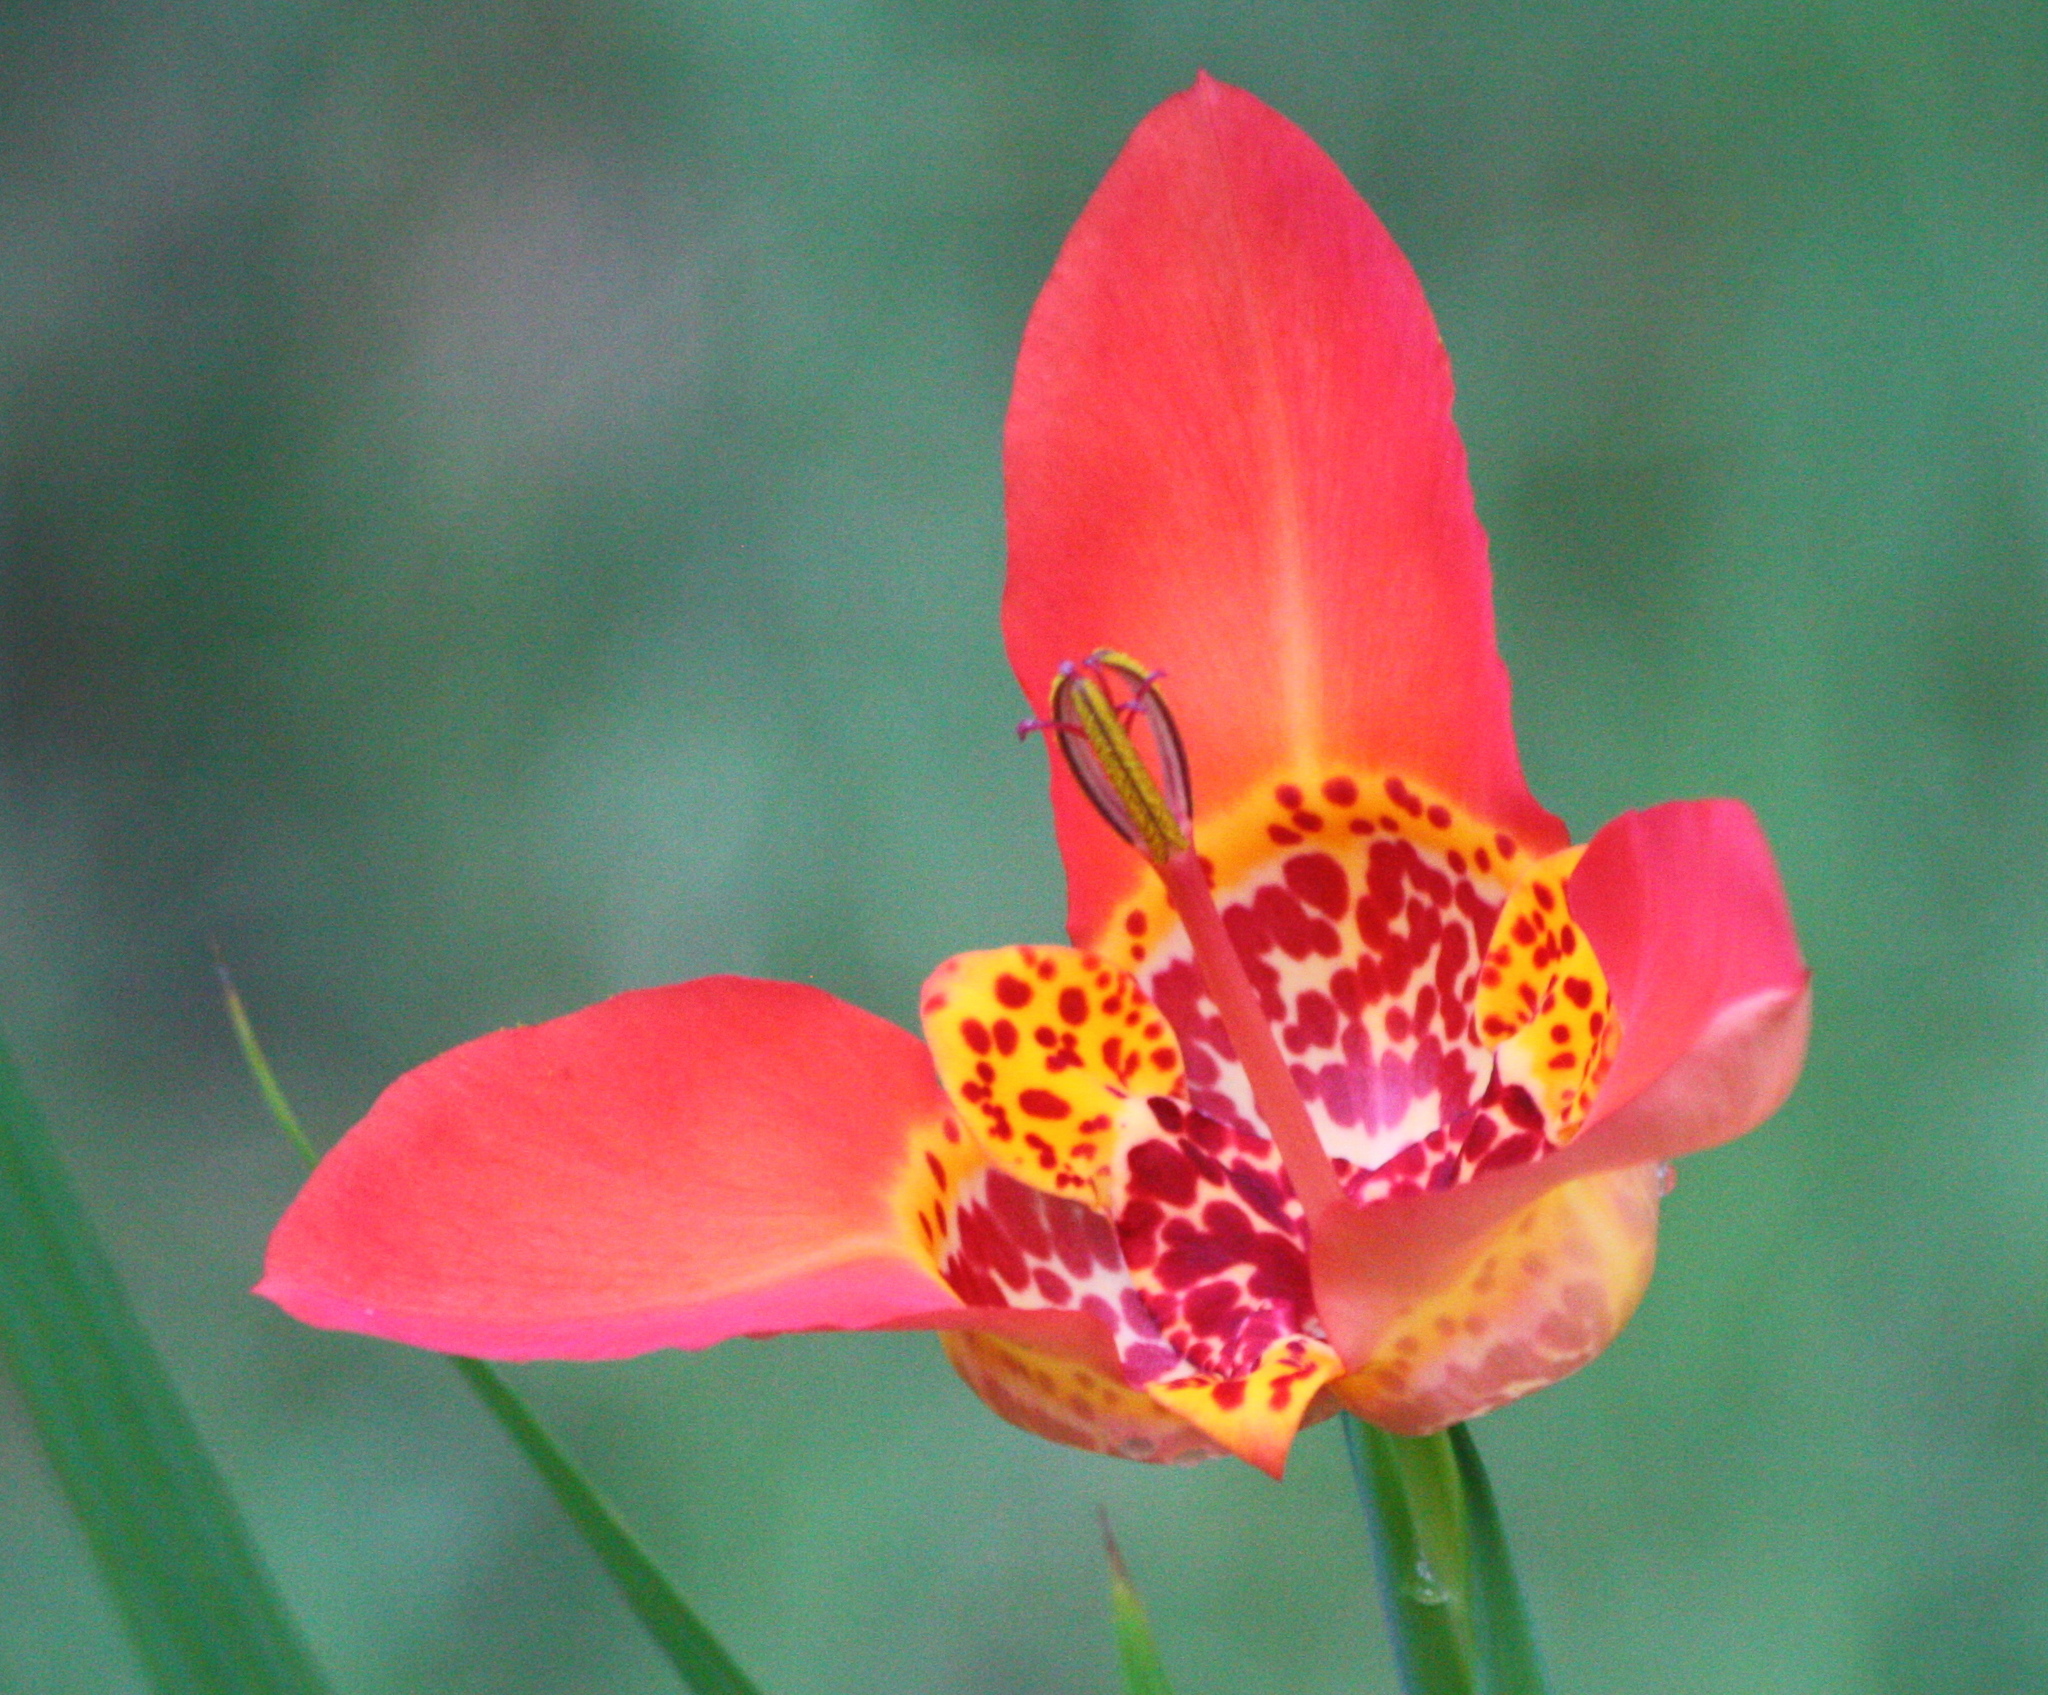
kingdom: Plantae
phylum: Tracheophyta
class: Liliopsida
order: Asparagales
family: Iridaceae
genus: Tigridia
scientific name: Tigridia pavonia
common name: Peacock-flower
